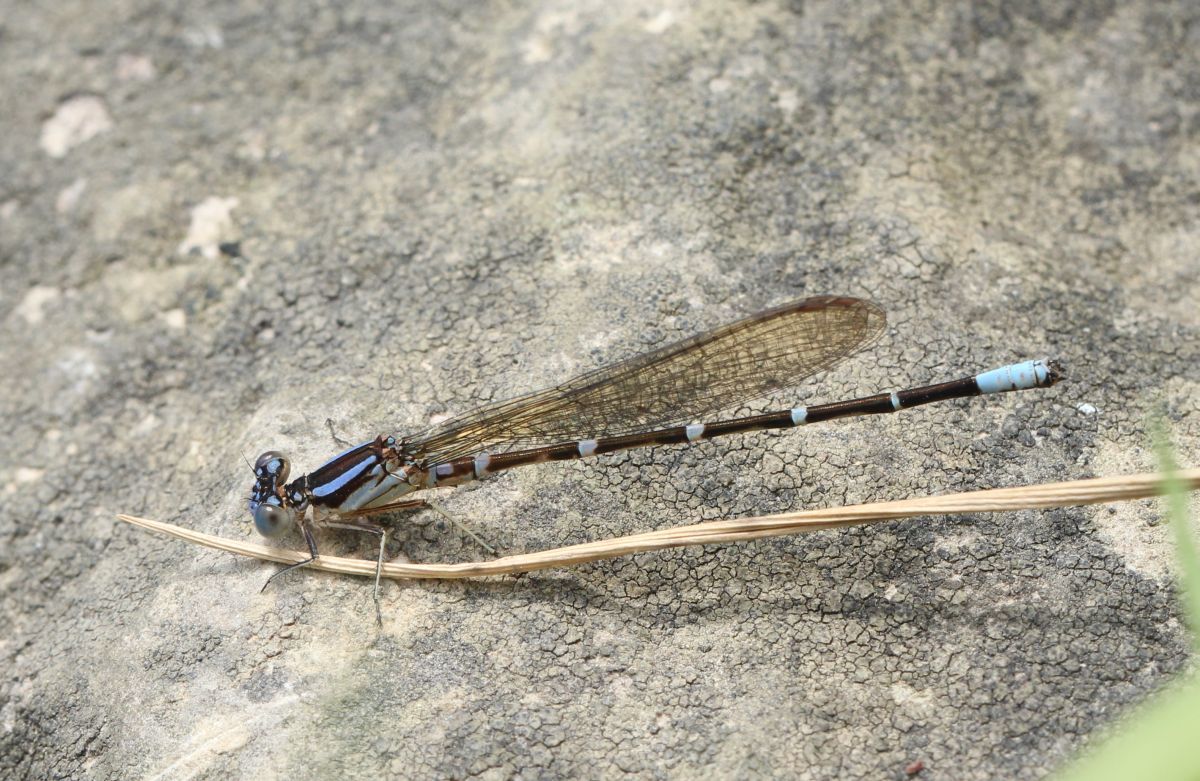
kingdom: Animalia
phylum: Arthropoda
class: Insecta
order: Odonata
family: Coenagrionidae
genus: Argia
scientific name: Argia sedula
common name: Blue-ringed dancer
